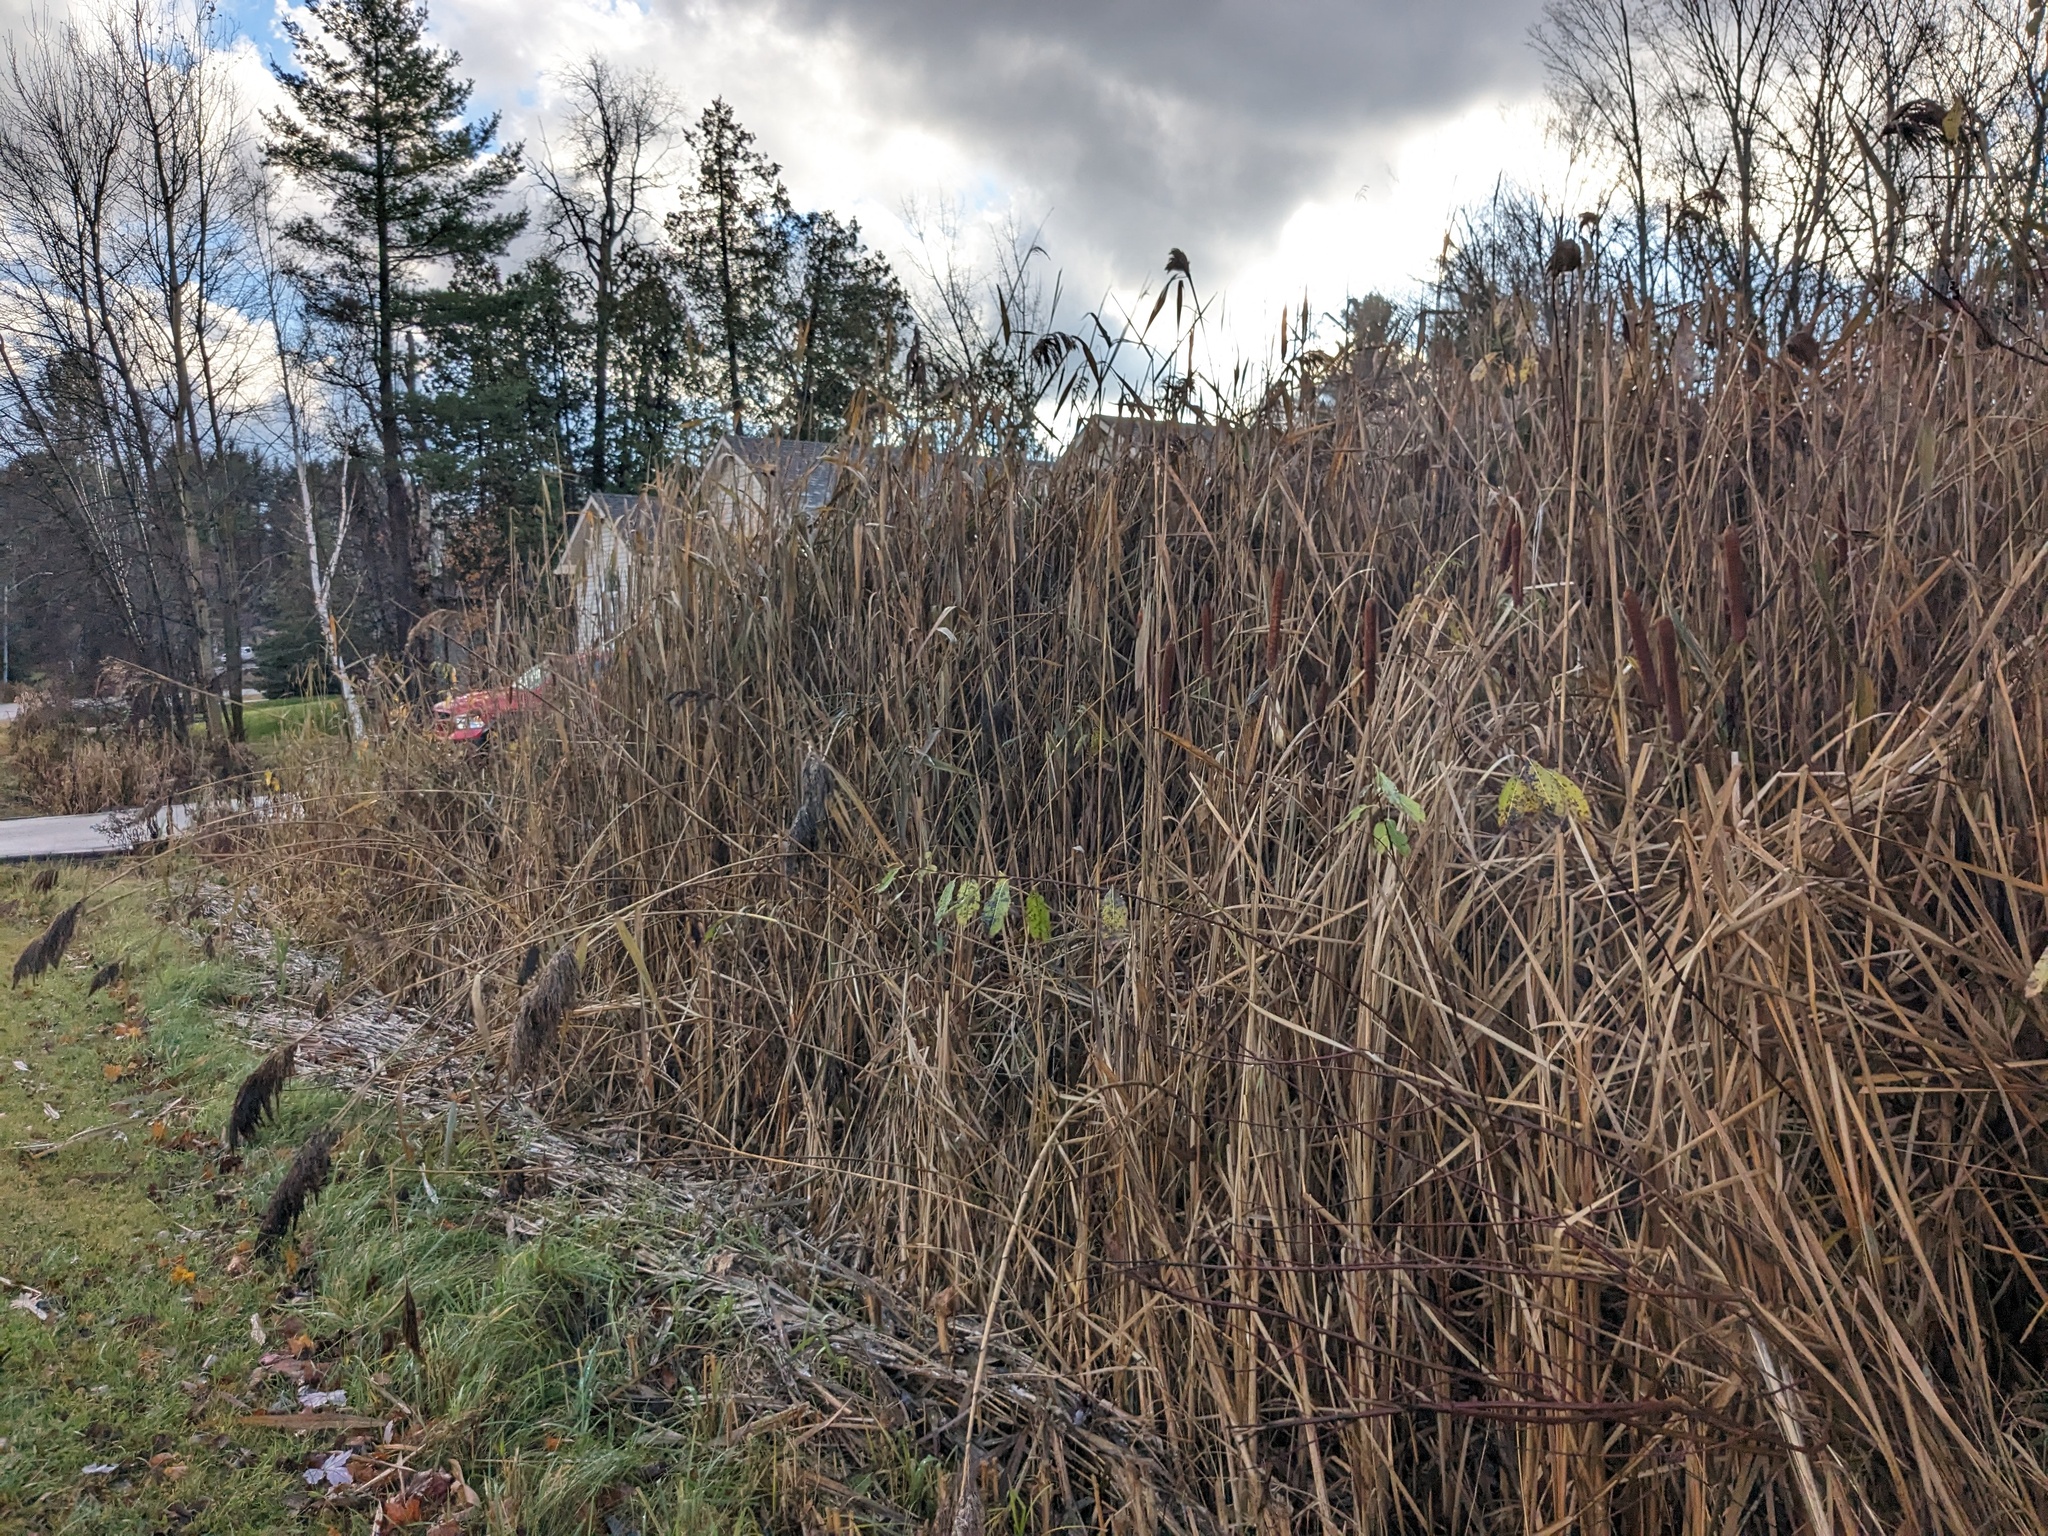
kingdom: Plantae
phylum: Tracheophyta
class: Liliopsida
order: Poales
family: Poaceae
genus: Phragmites
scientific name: Phragmites australis
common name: Common reed
